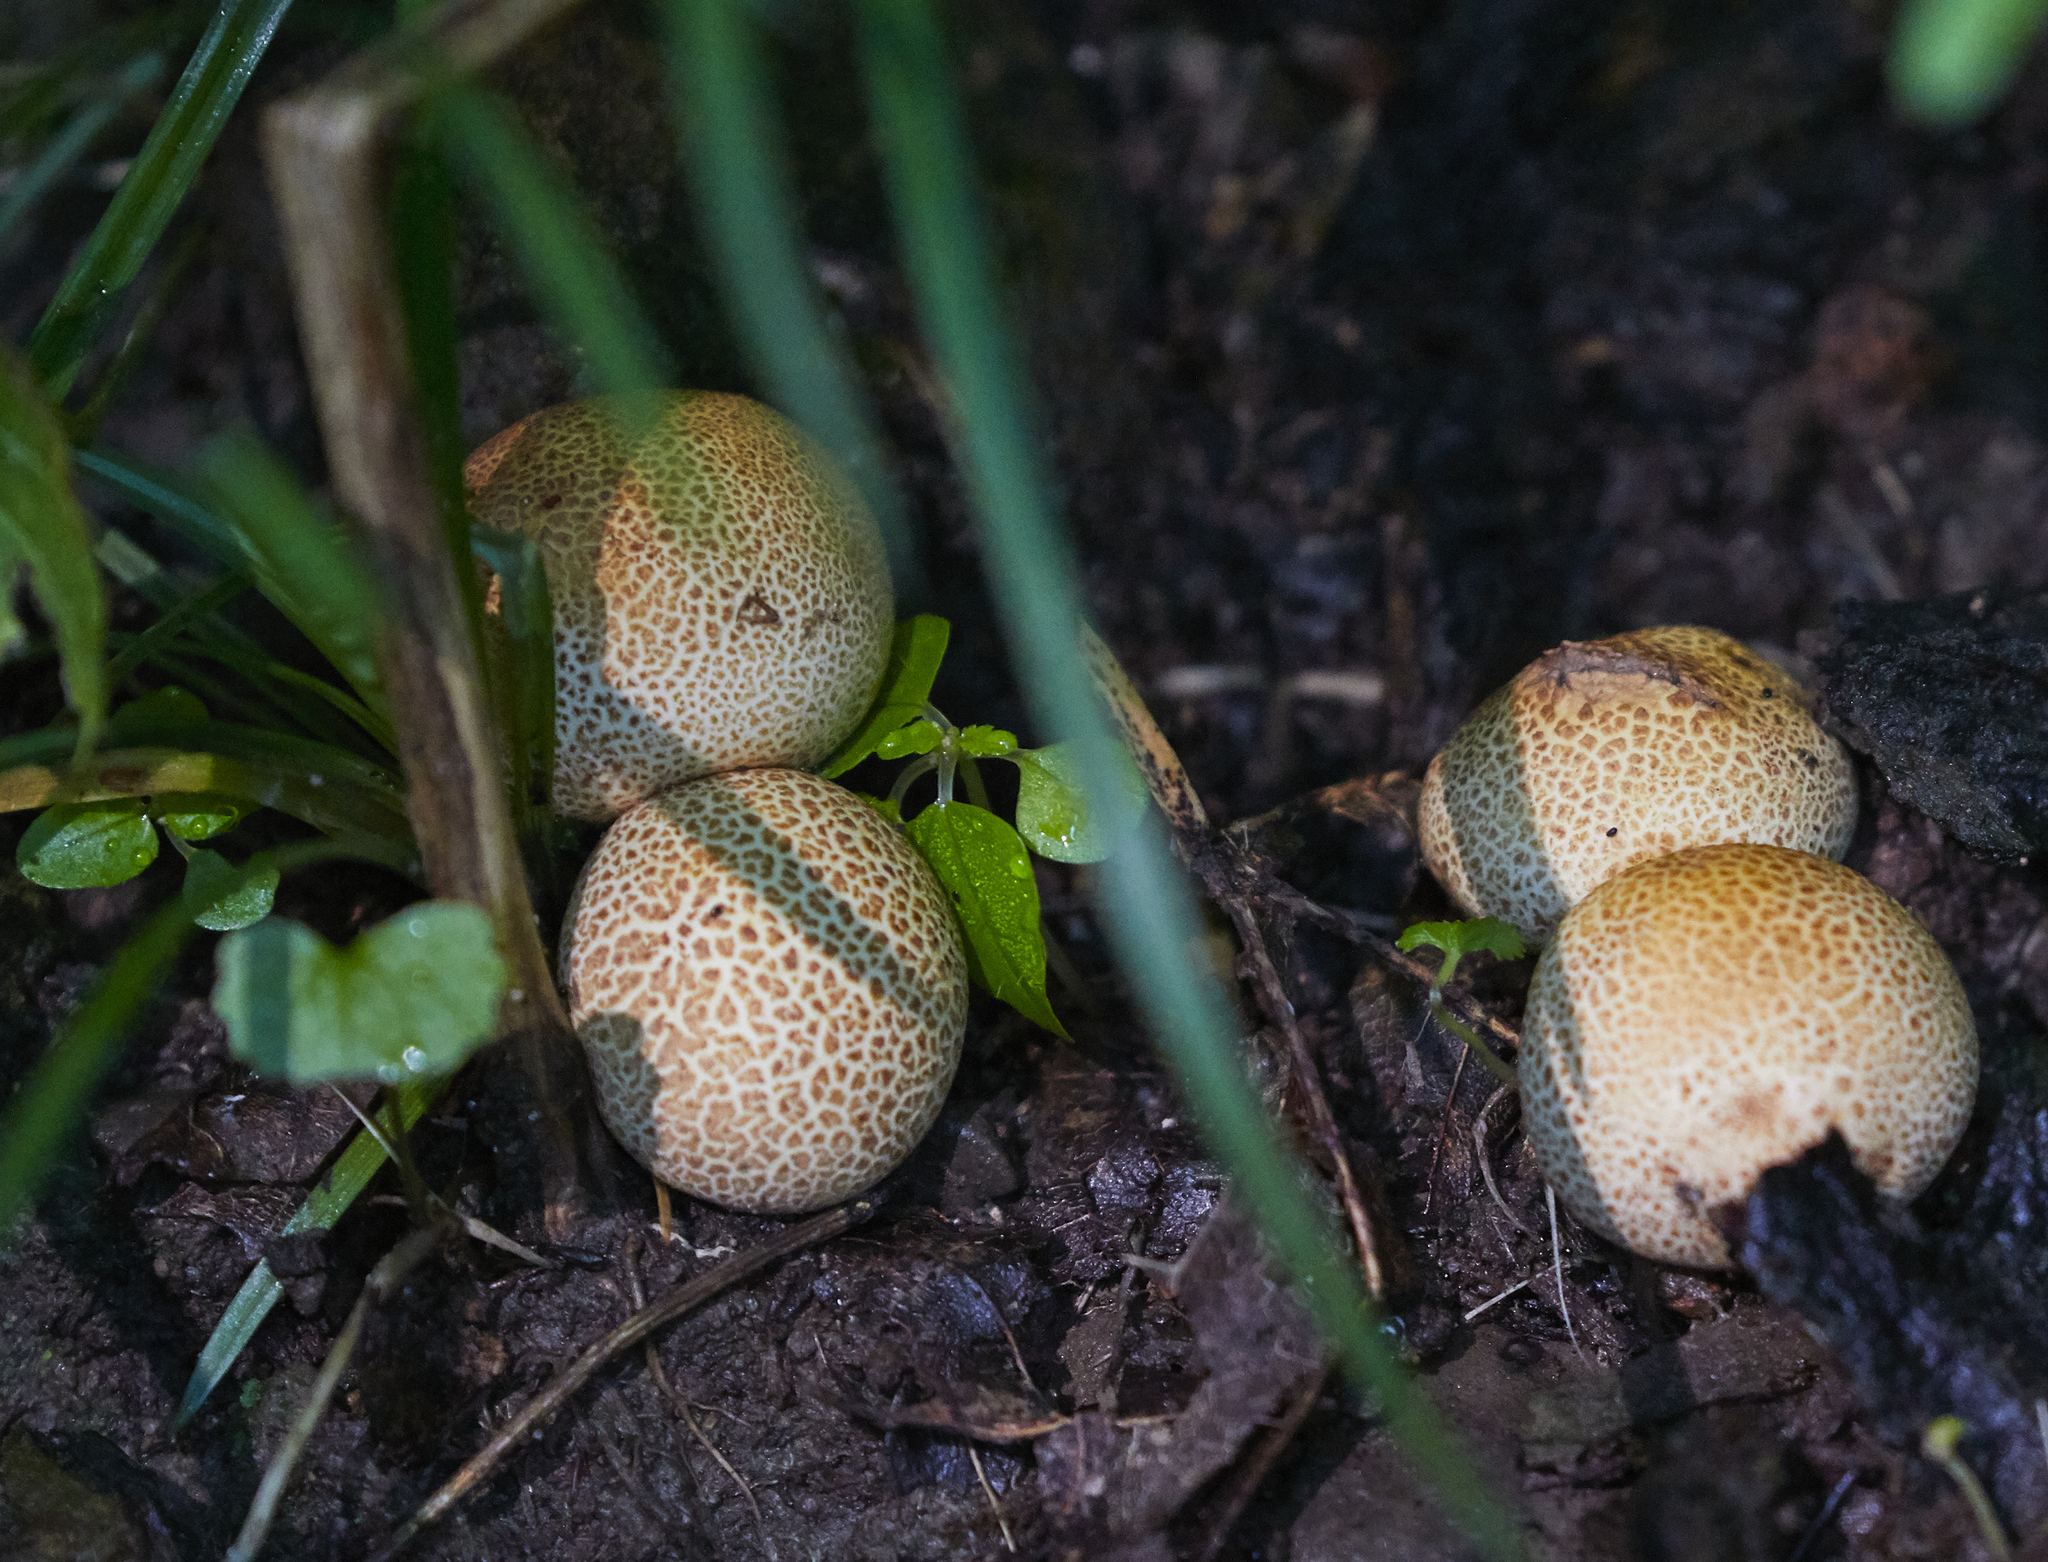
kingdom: Fungi
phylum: Basidiomycota
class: Agaricomycetes
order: Boletales
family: Sclerodermataceae
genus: Scleroderma
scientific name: Scleroderma citrinum
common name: Common earthball
